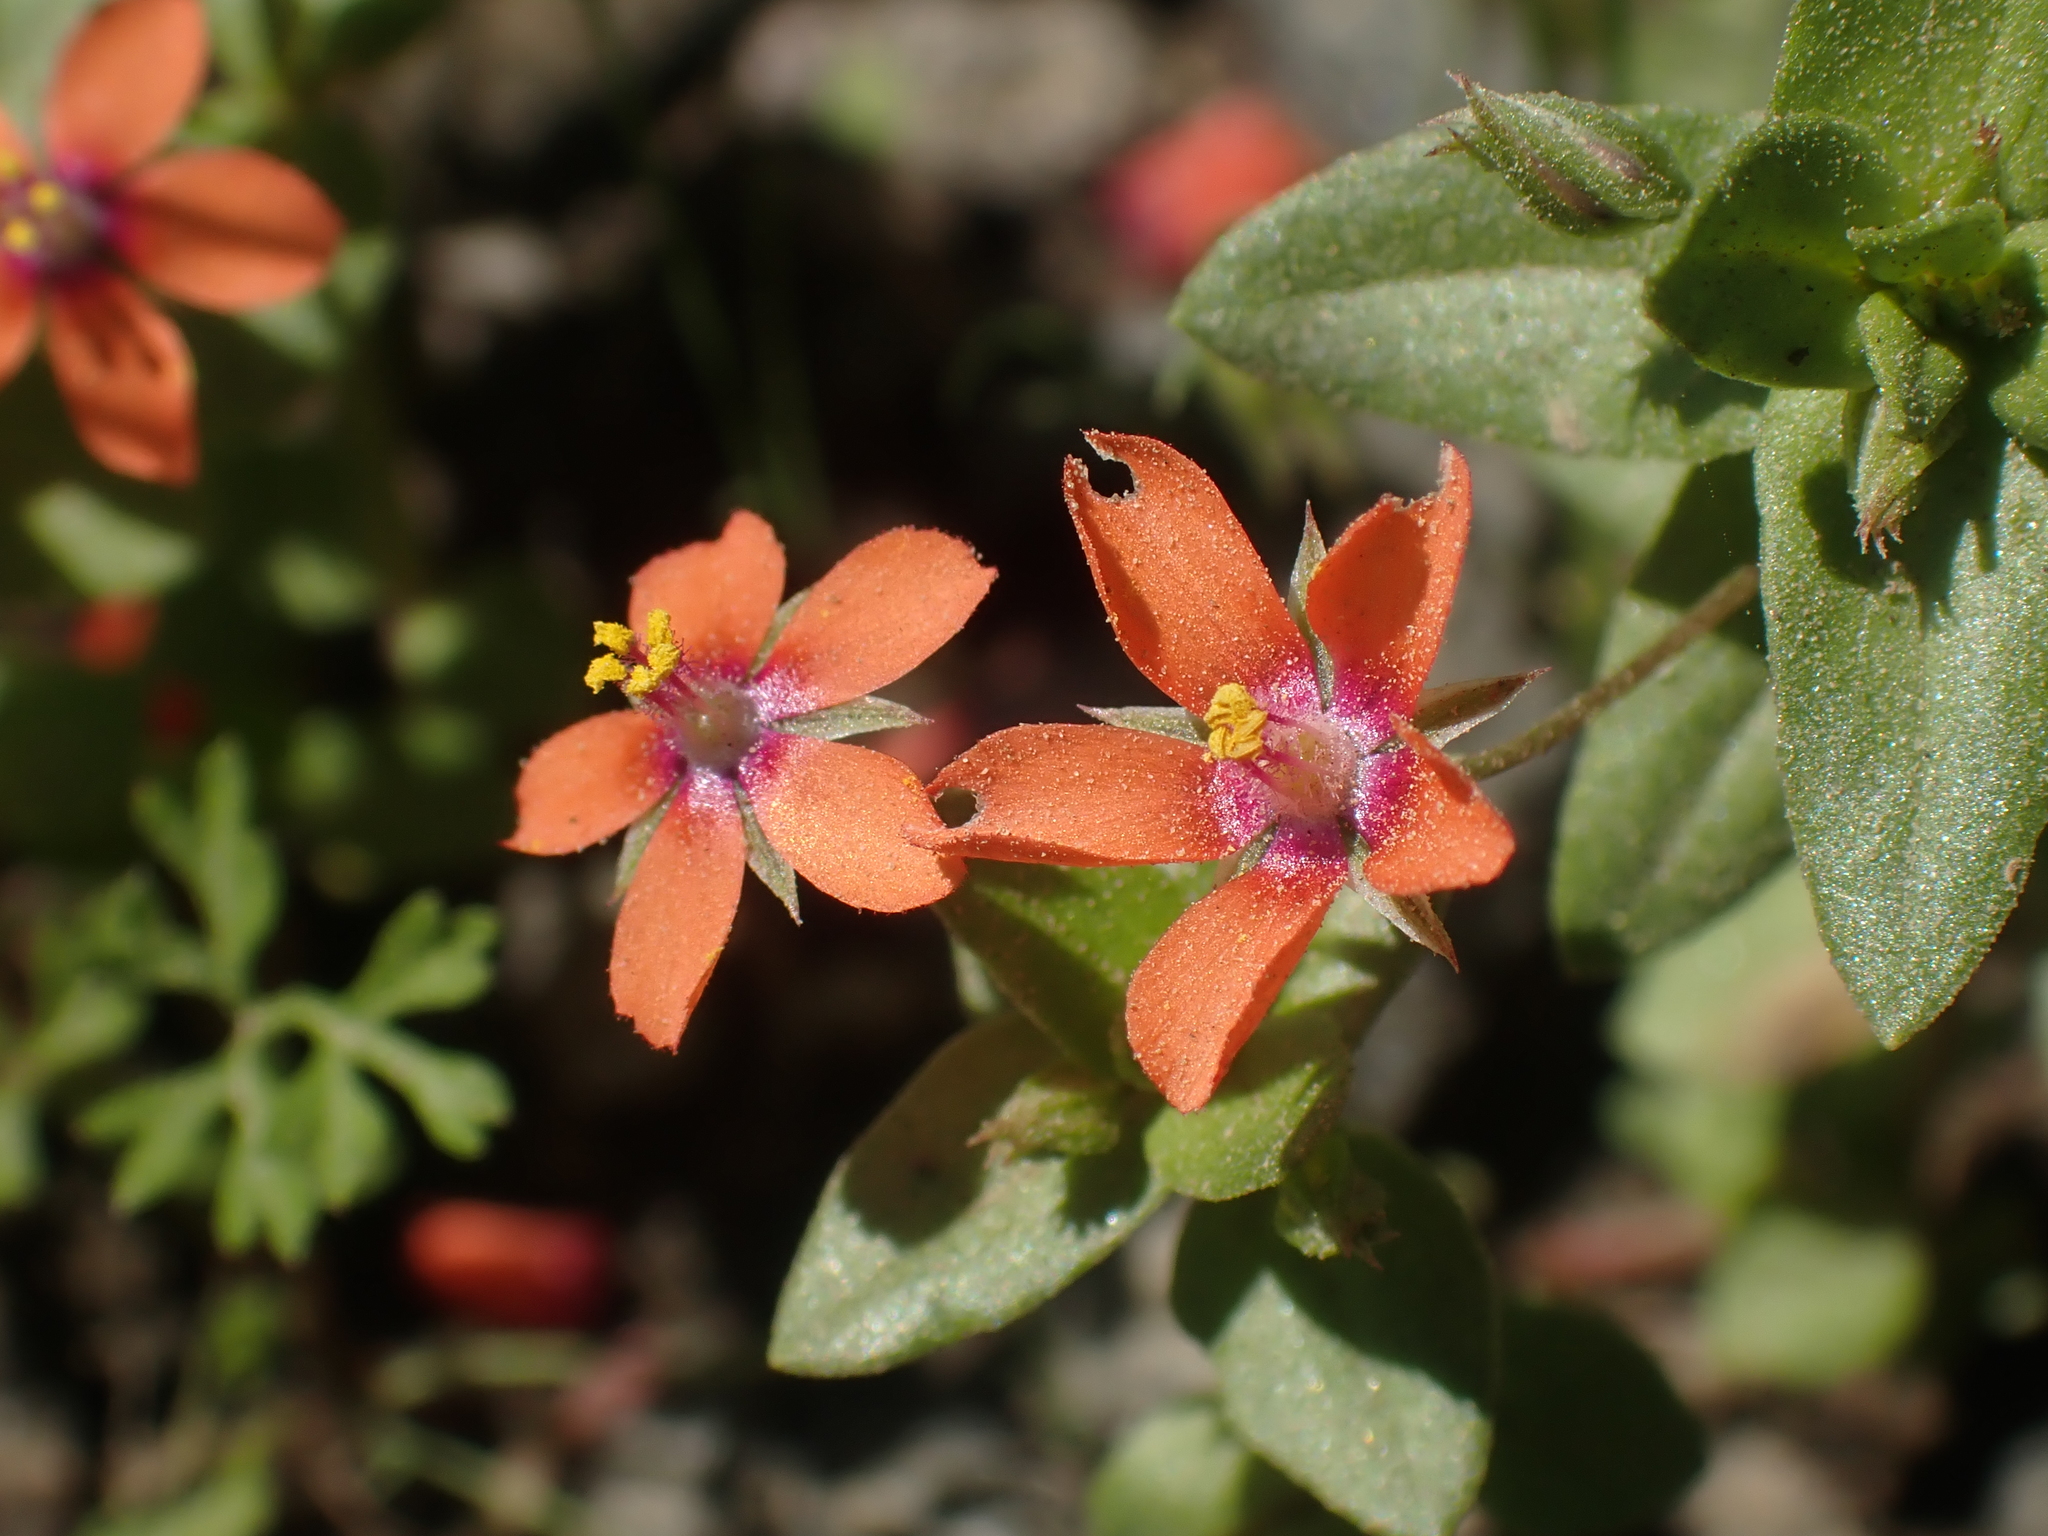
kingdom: Plantae
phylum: Tracheophyta
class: Magnoliopsida
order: Ericales
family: Primulaceae
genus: Lysimachia
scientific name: Lysimachia arvensis
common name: Scarlet pimpernel
